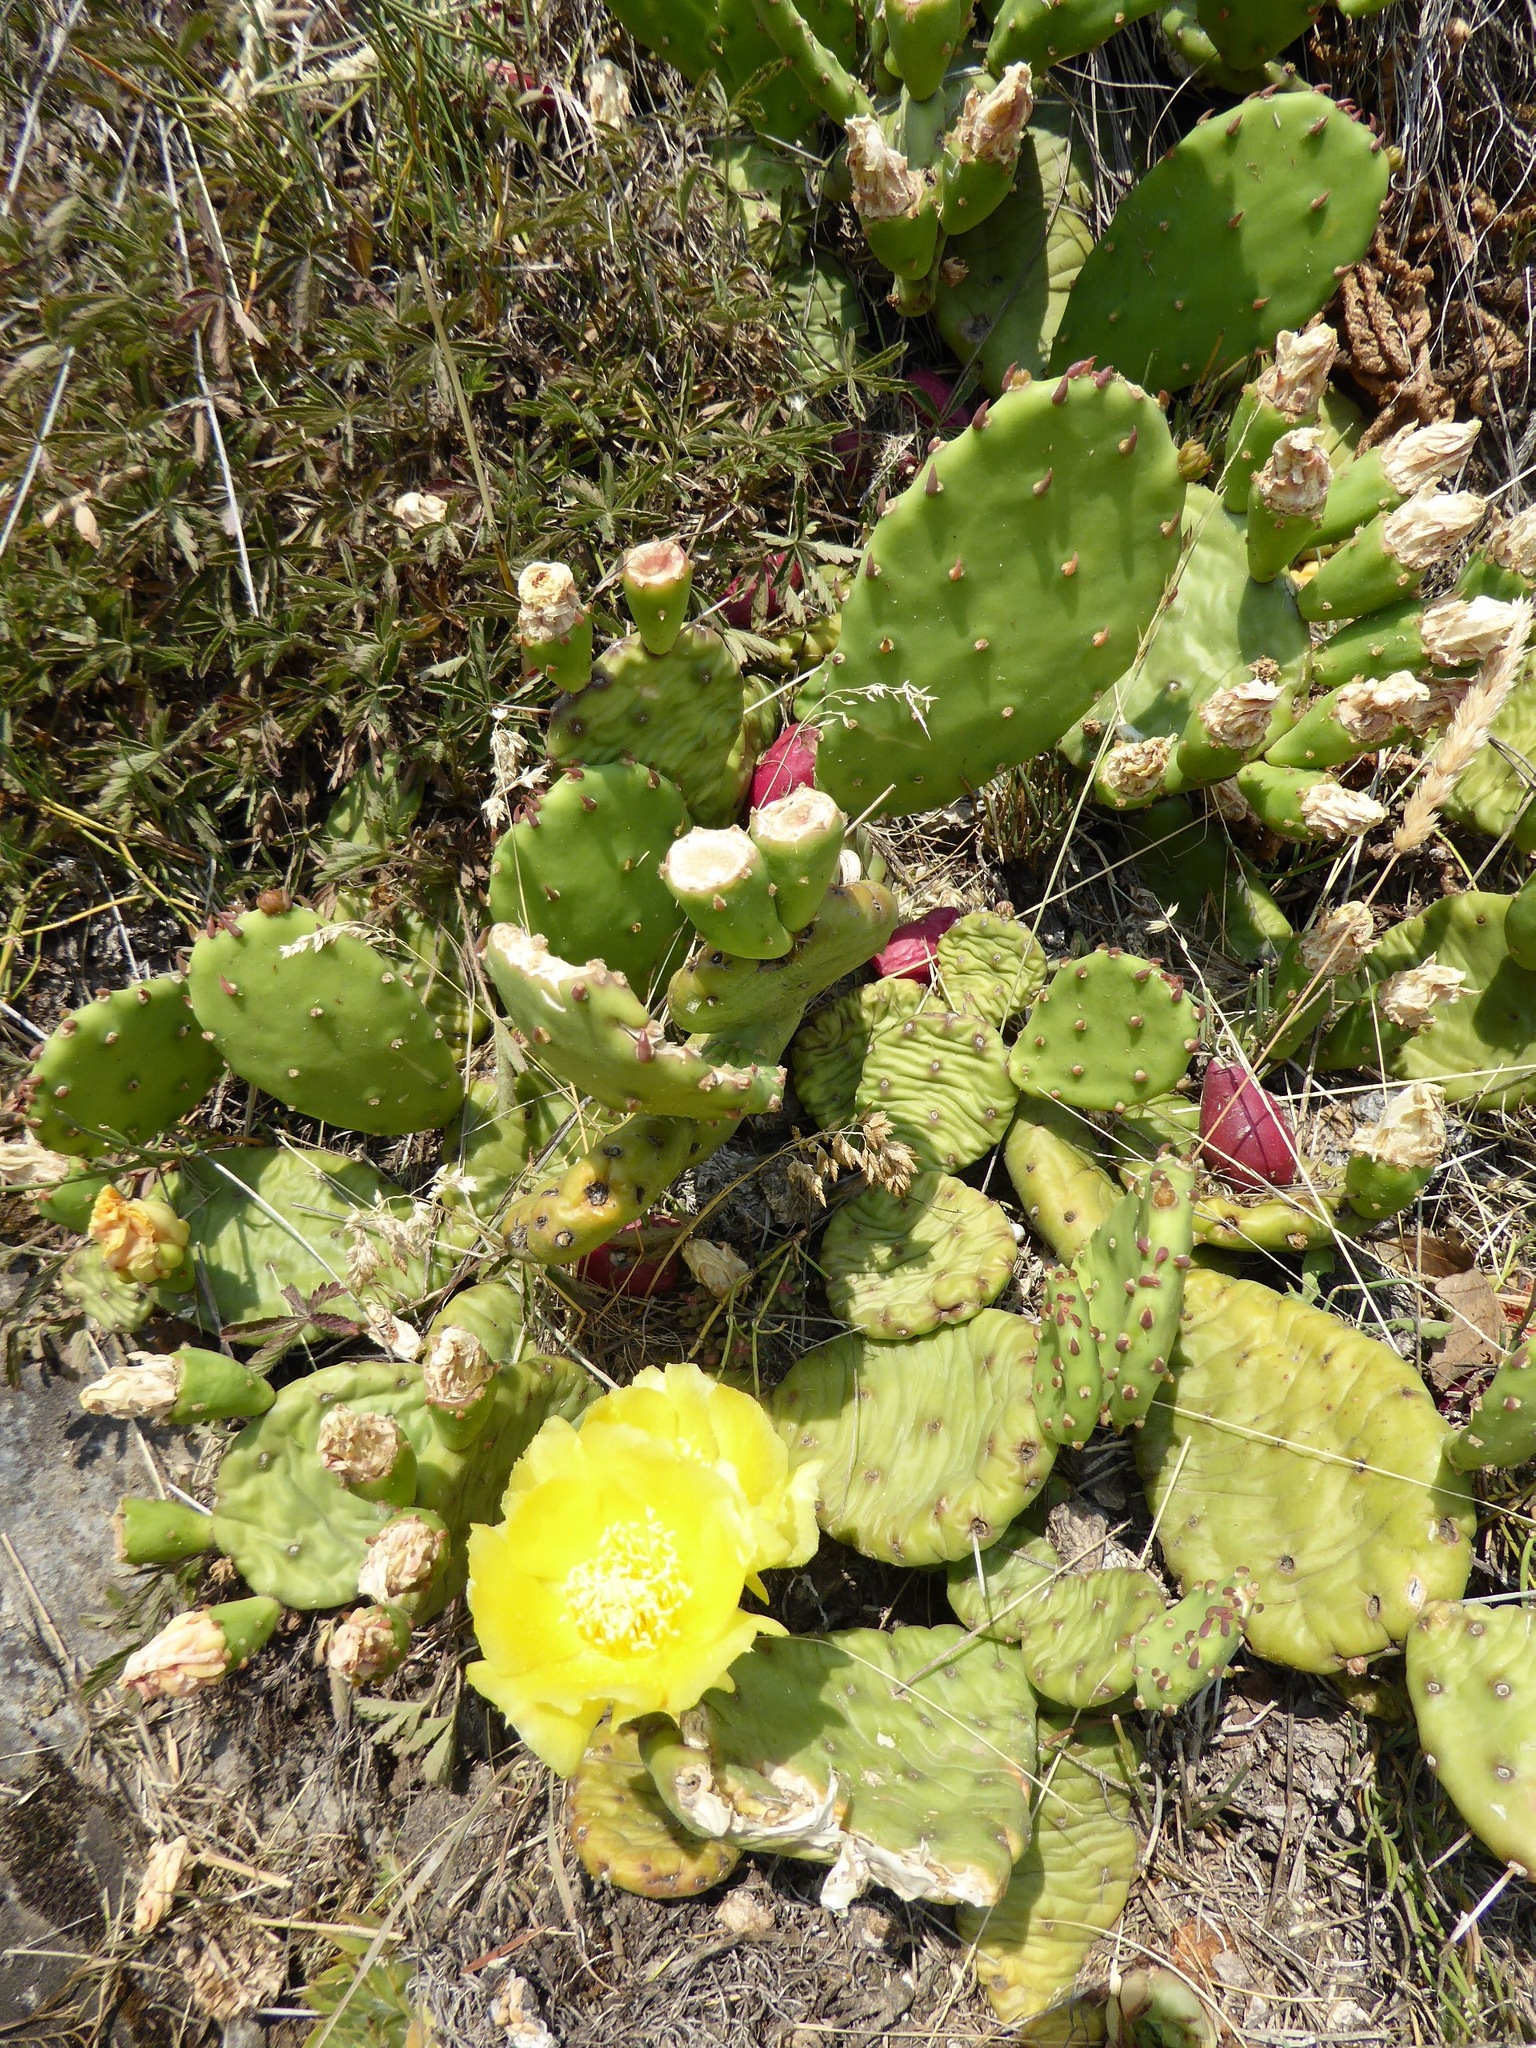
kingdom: Plantae
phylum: Tracheophyta
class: Magnoliopsida
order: Caryophyllales
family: Cactaceae
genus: Opuntia
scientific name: Opuntia humifusa
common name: Eastern prickly-pear
